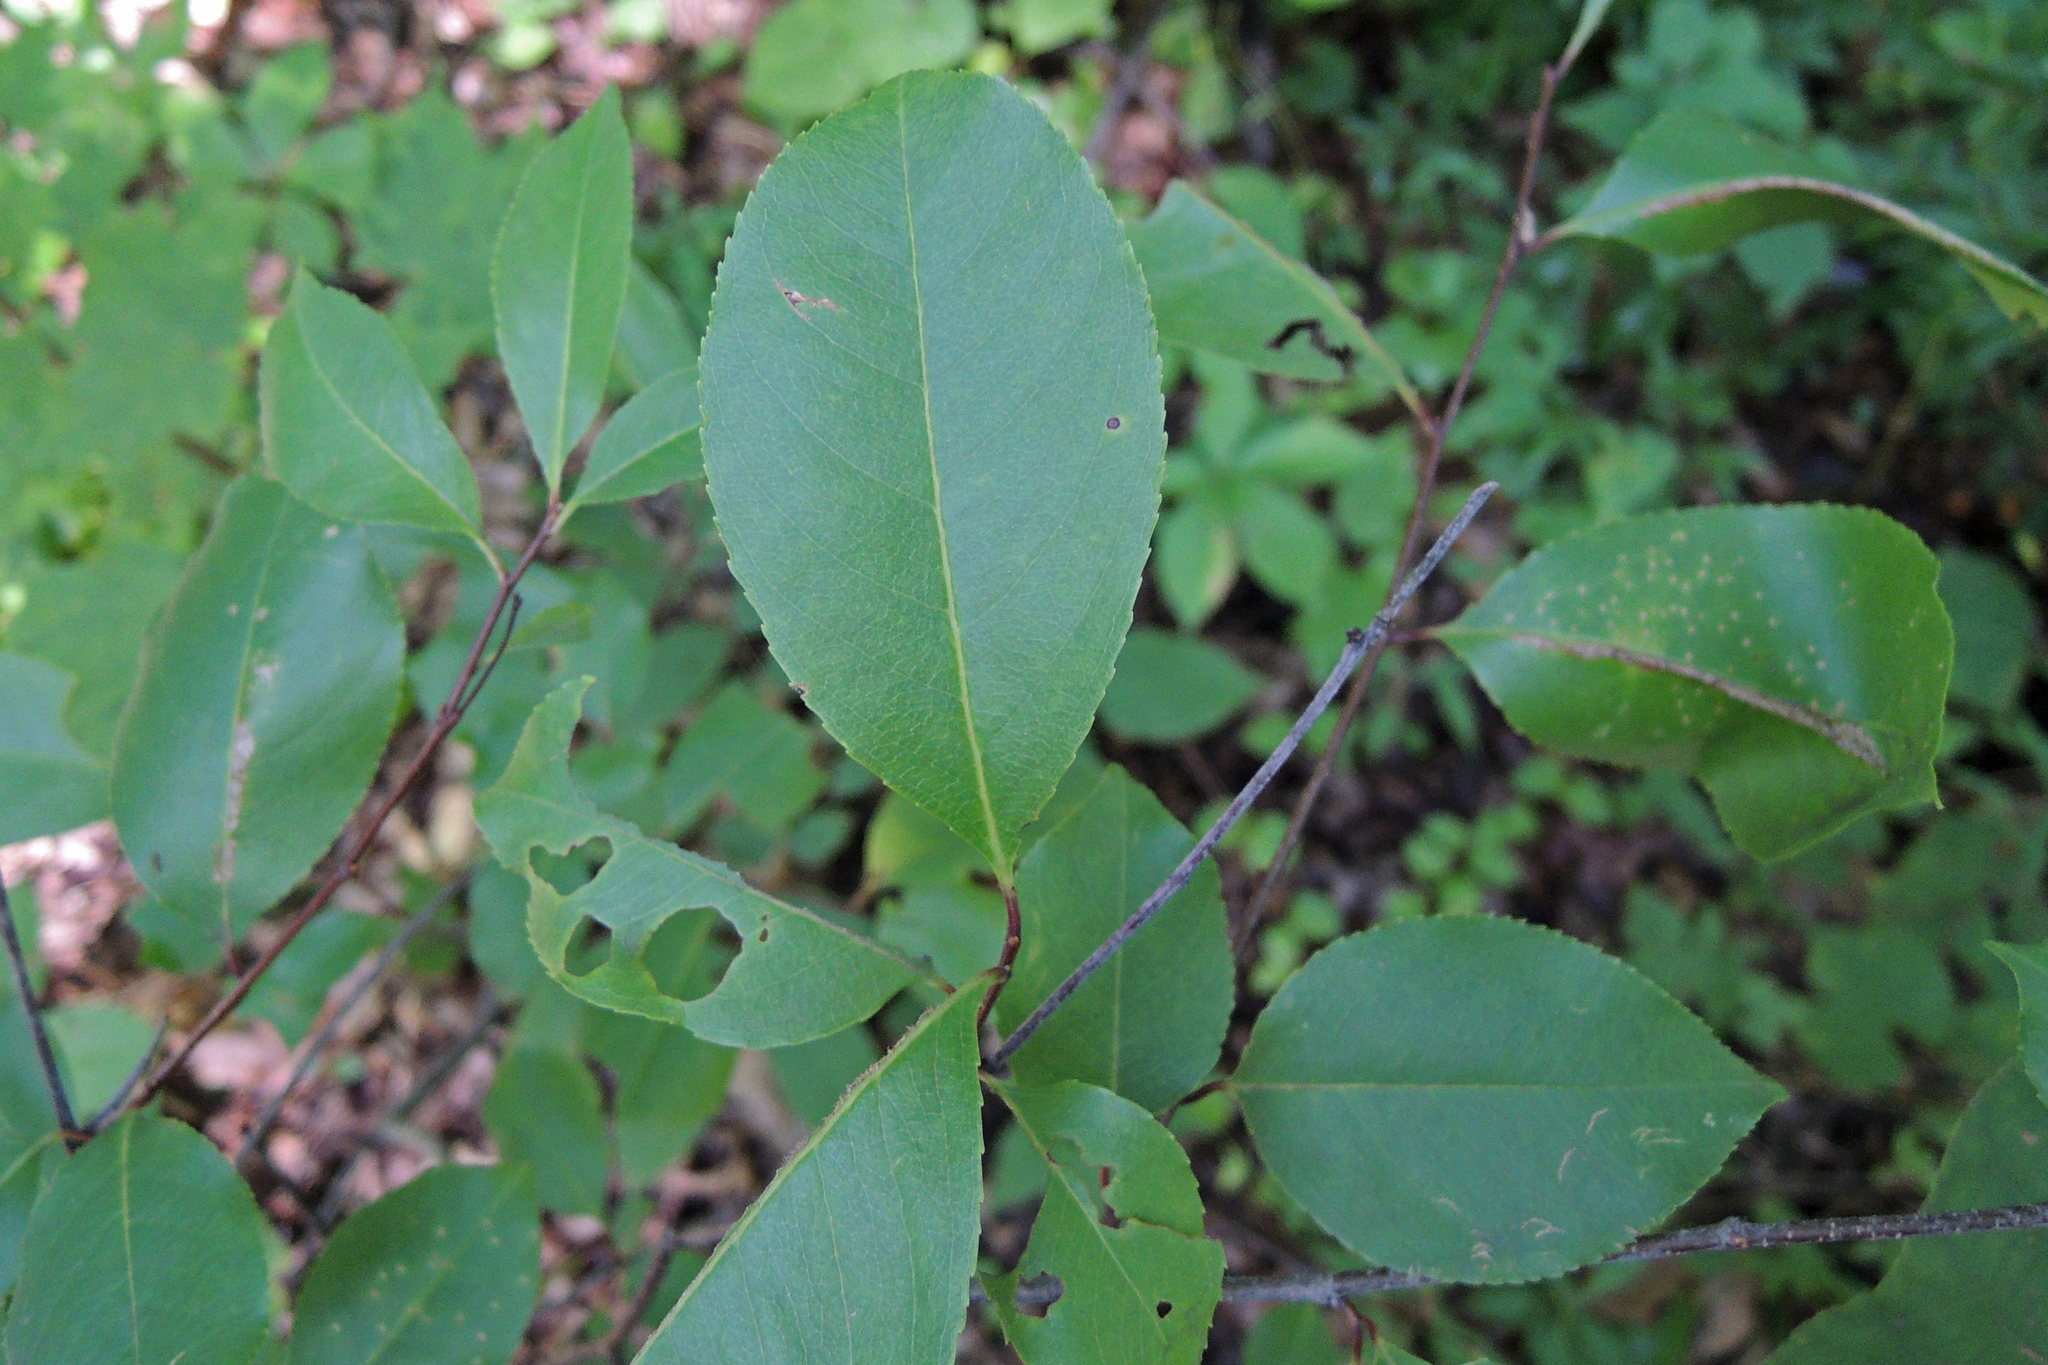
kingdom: Plantae
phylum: Tracheophyta
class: Magnoliopsida
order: Rosales
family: Rosaceae
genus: Prunus
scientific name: Prunus serotina
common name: Black cherry
